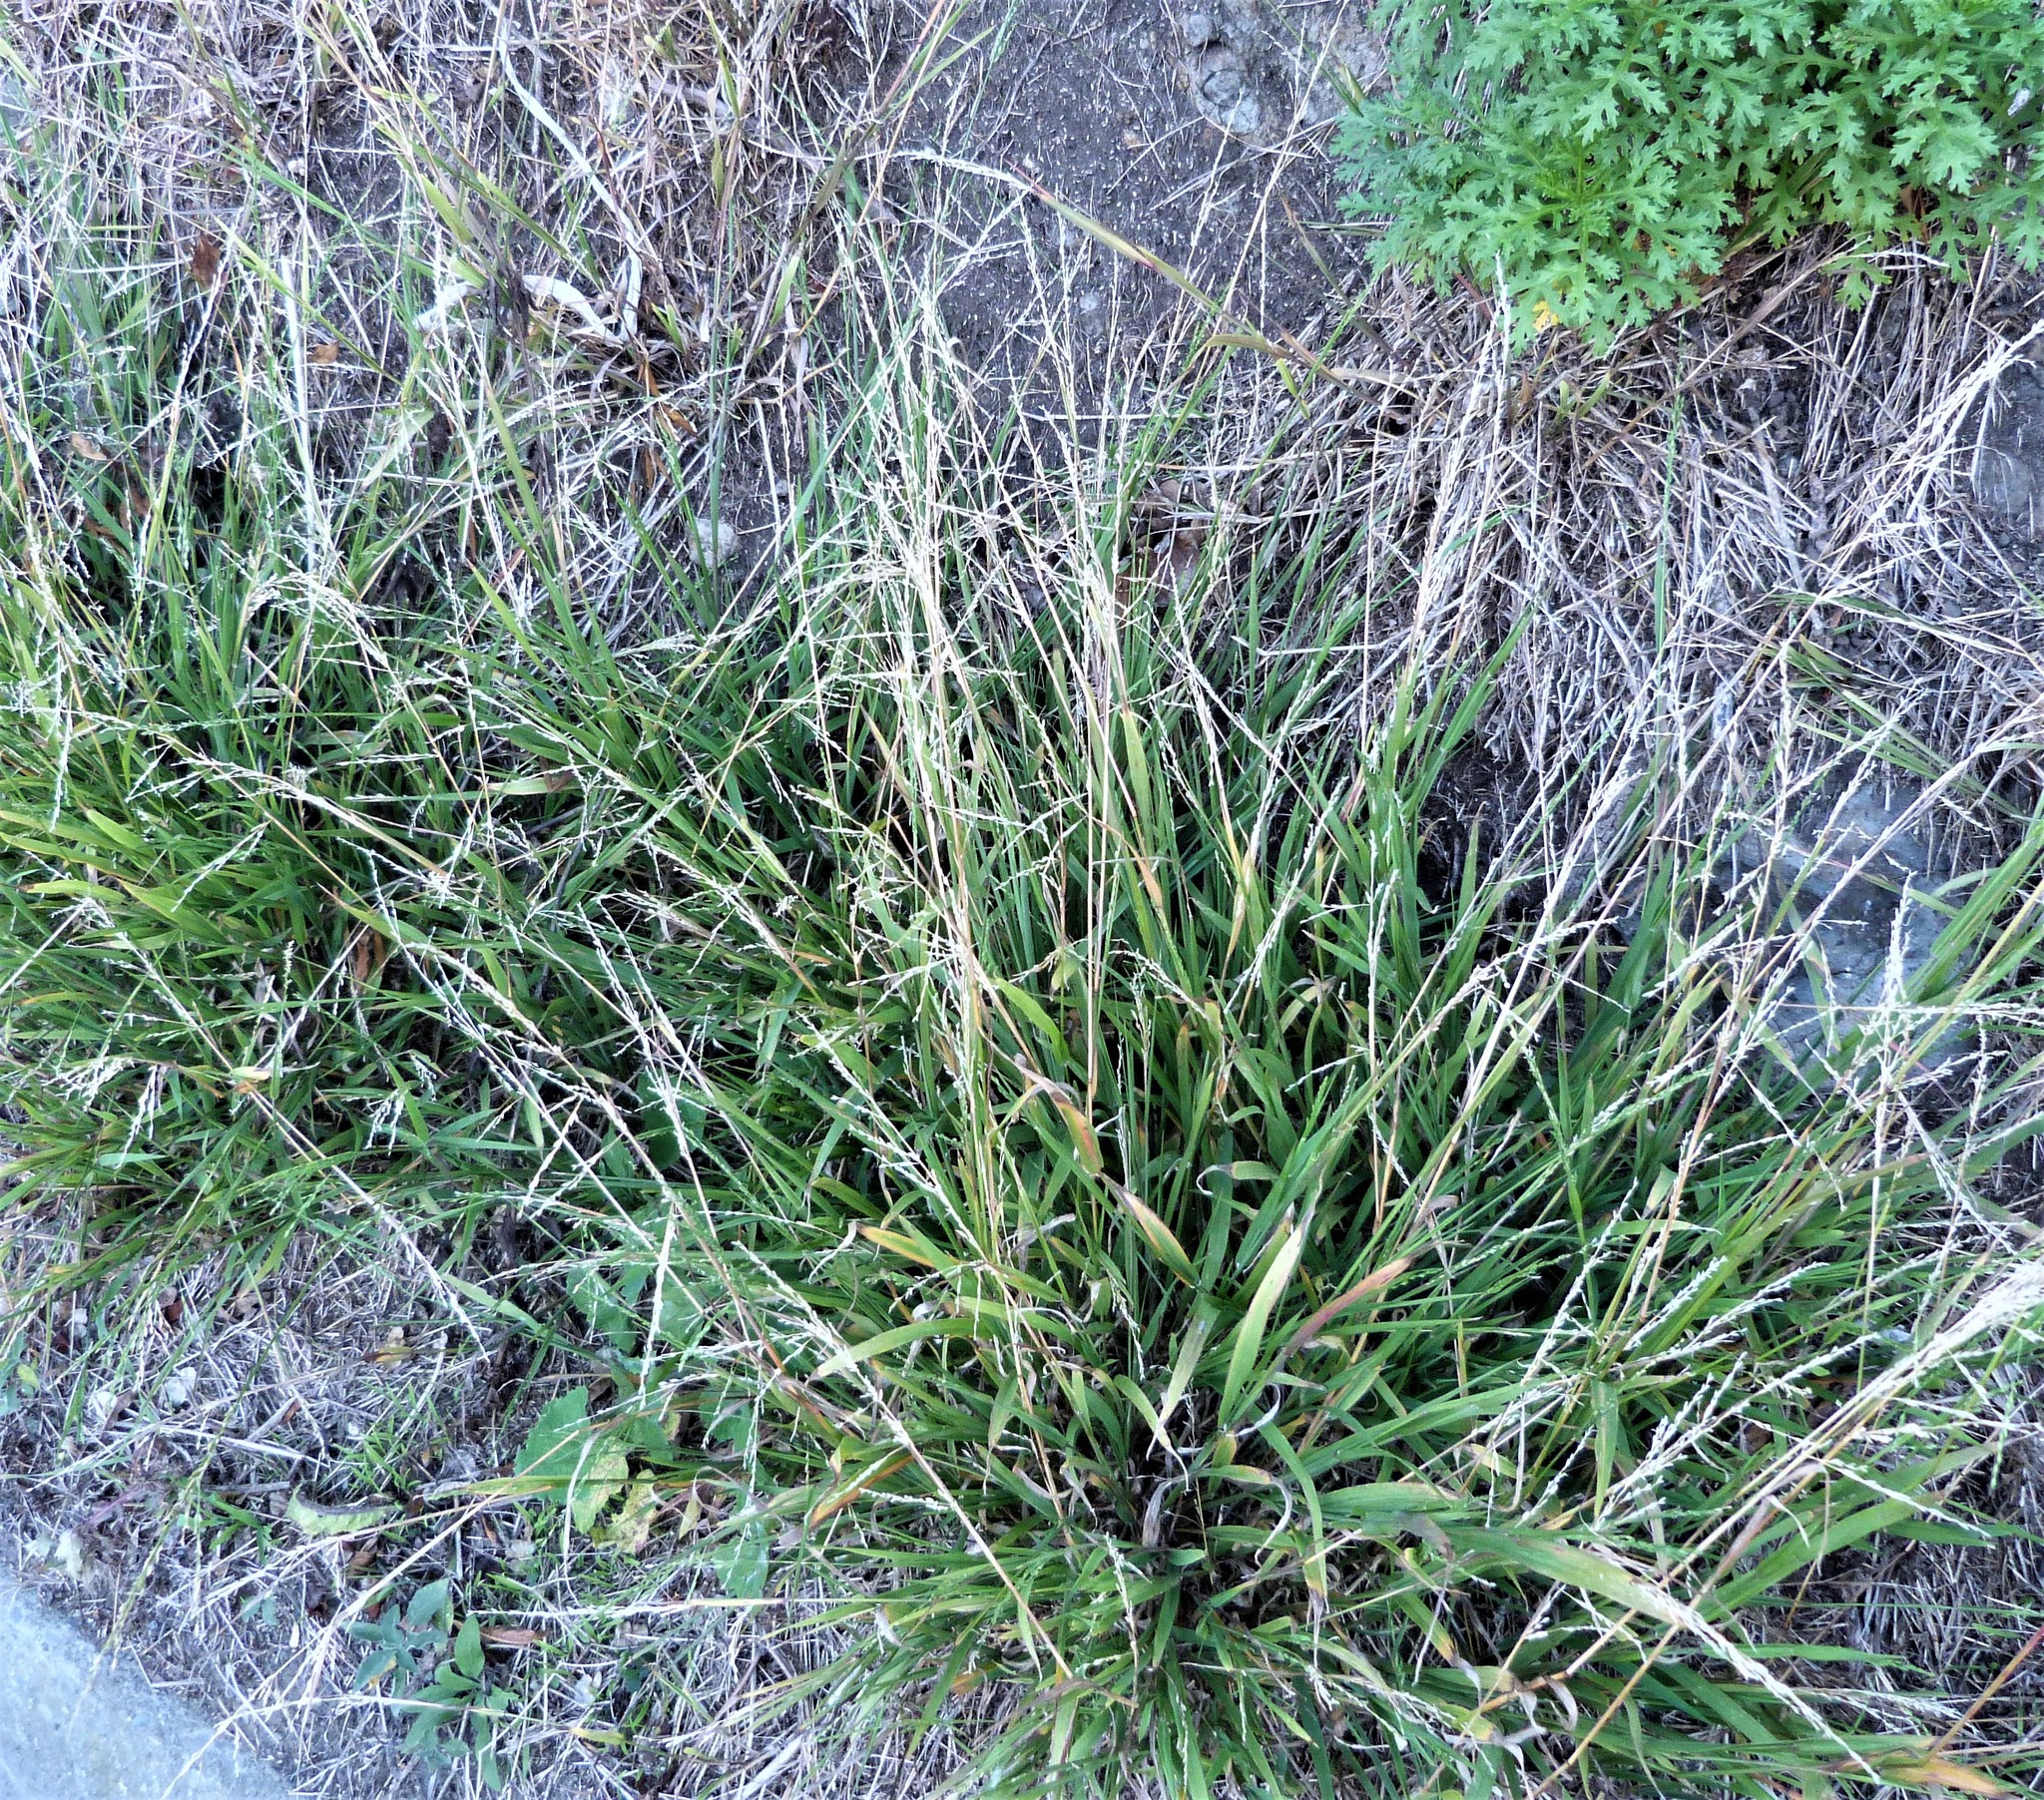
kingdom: Plantae
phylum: Tracheophyta
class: Liliopsida
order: Poales
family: Poaceae
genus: Ehrharta
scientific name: Ehrharta erecta
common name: Panic veldtgrass
